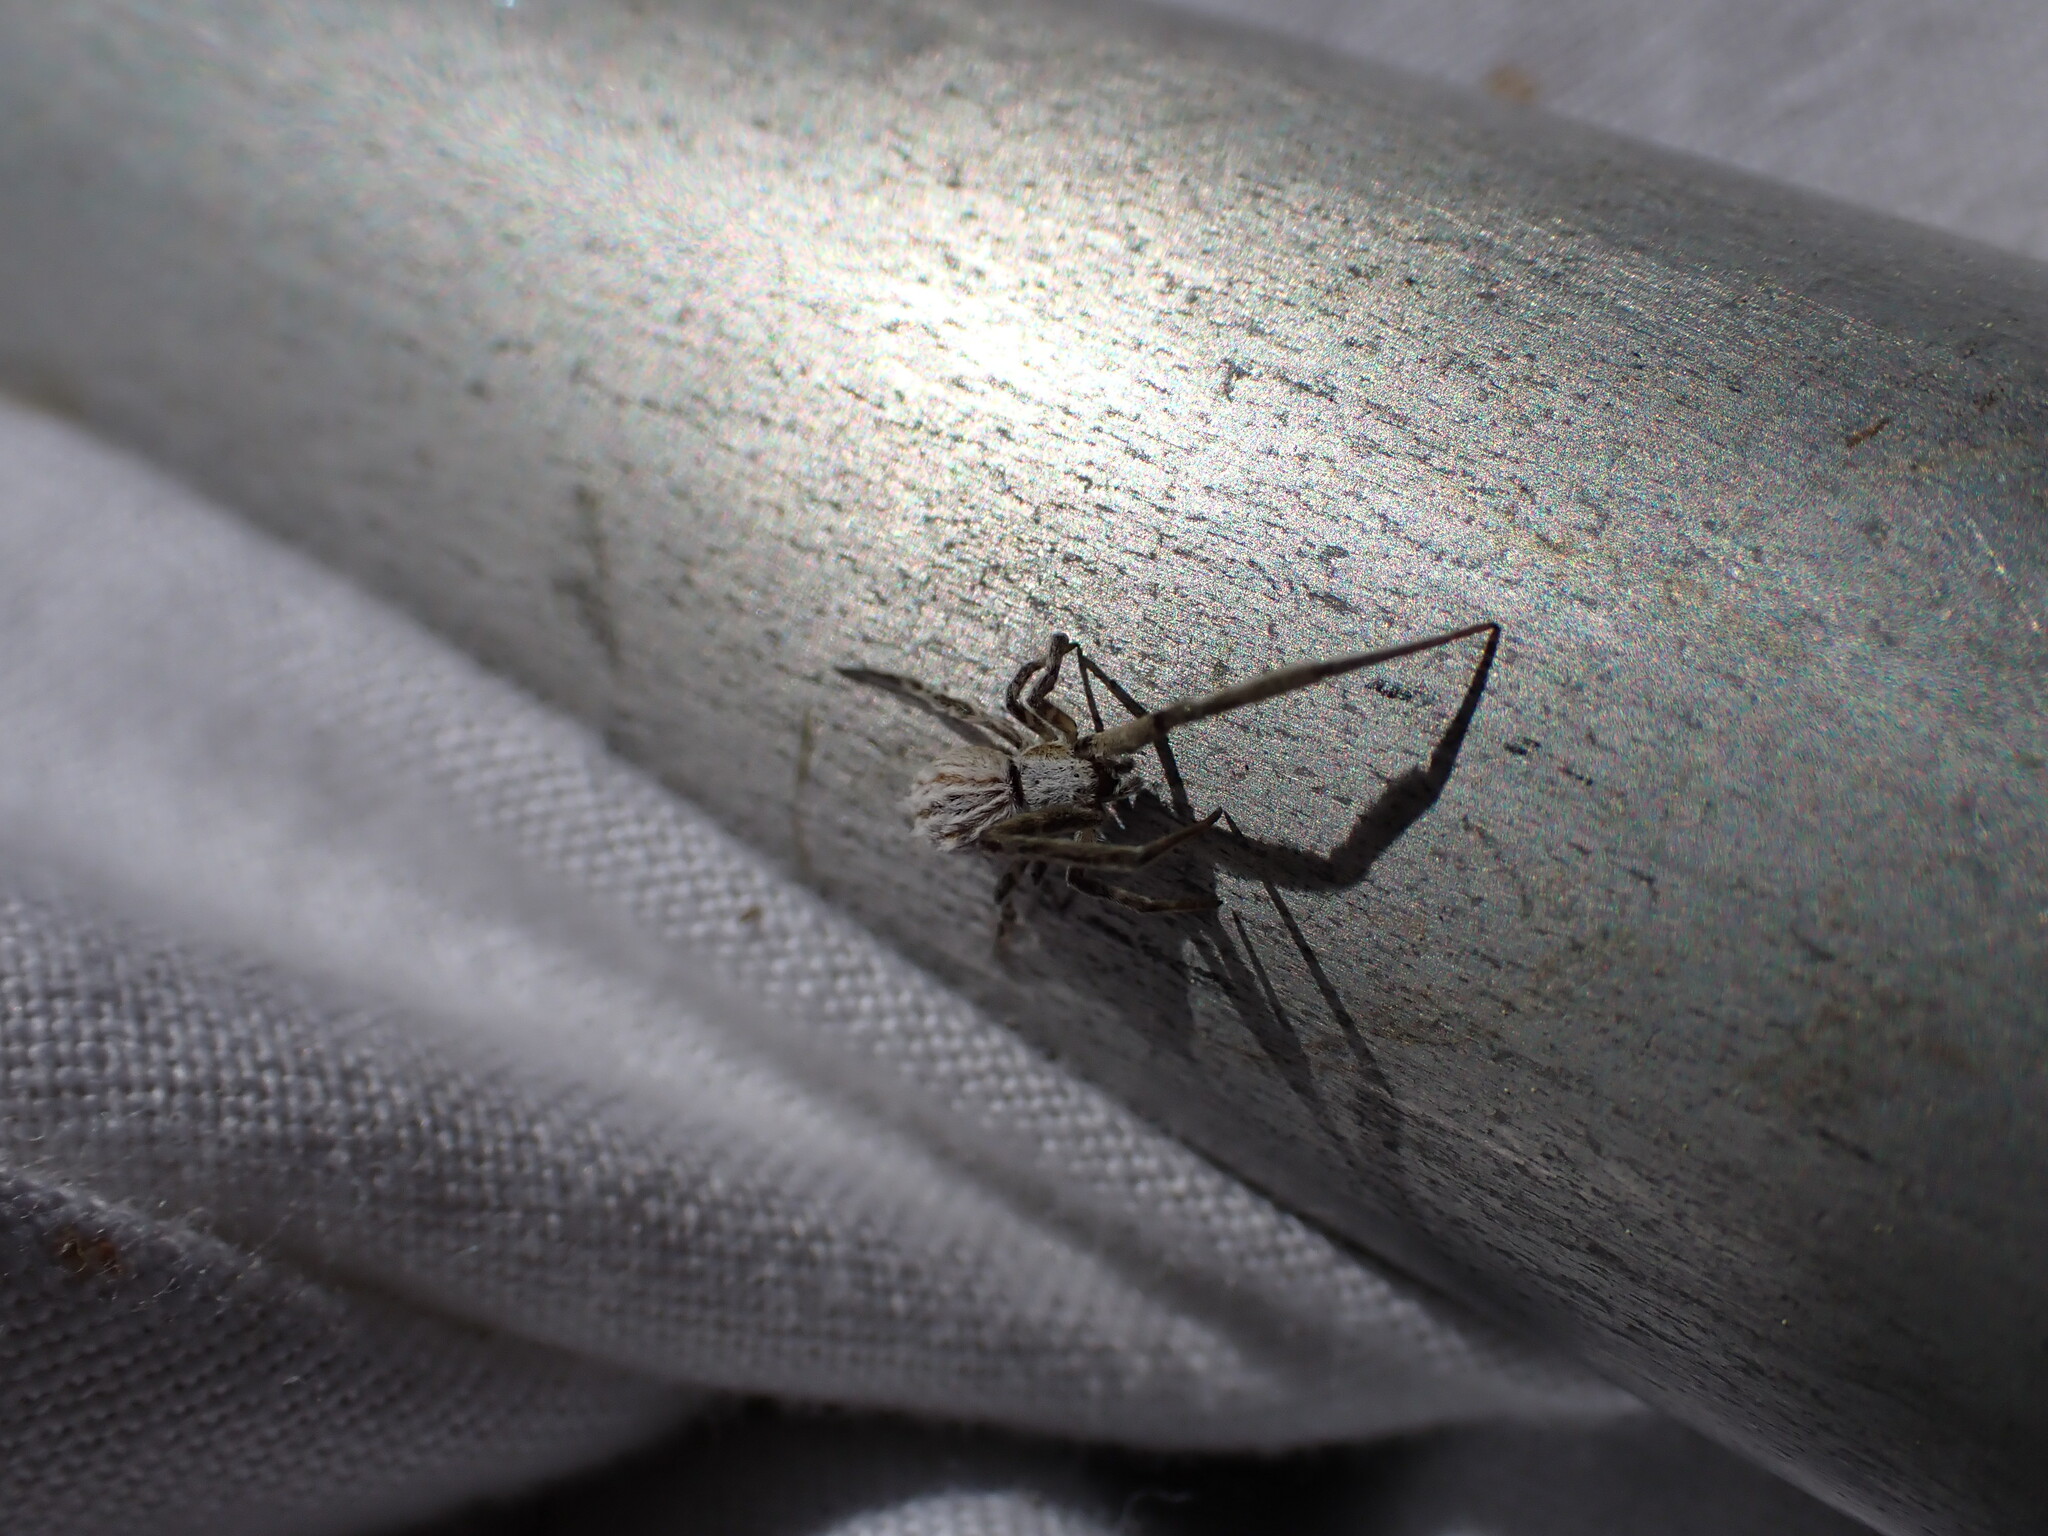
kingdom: Animalia
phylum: Arthropoda
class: Arachnida
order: Araneae
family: Uloboridae
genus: Uloborus
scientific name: Uloborus walckenaerius
